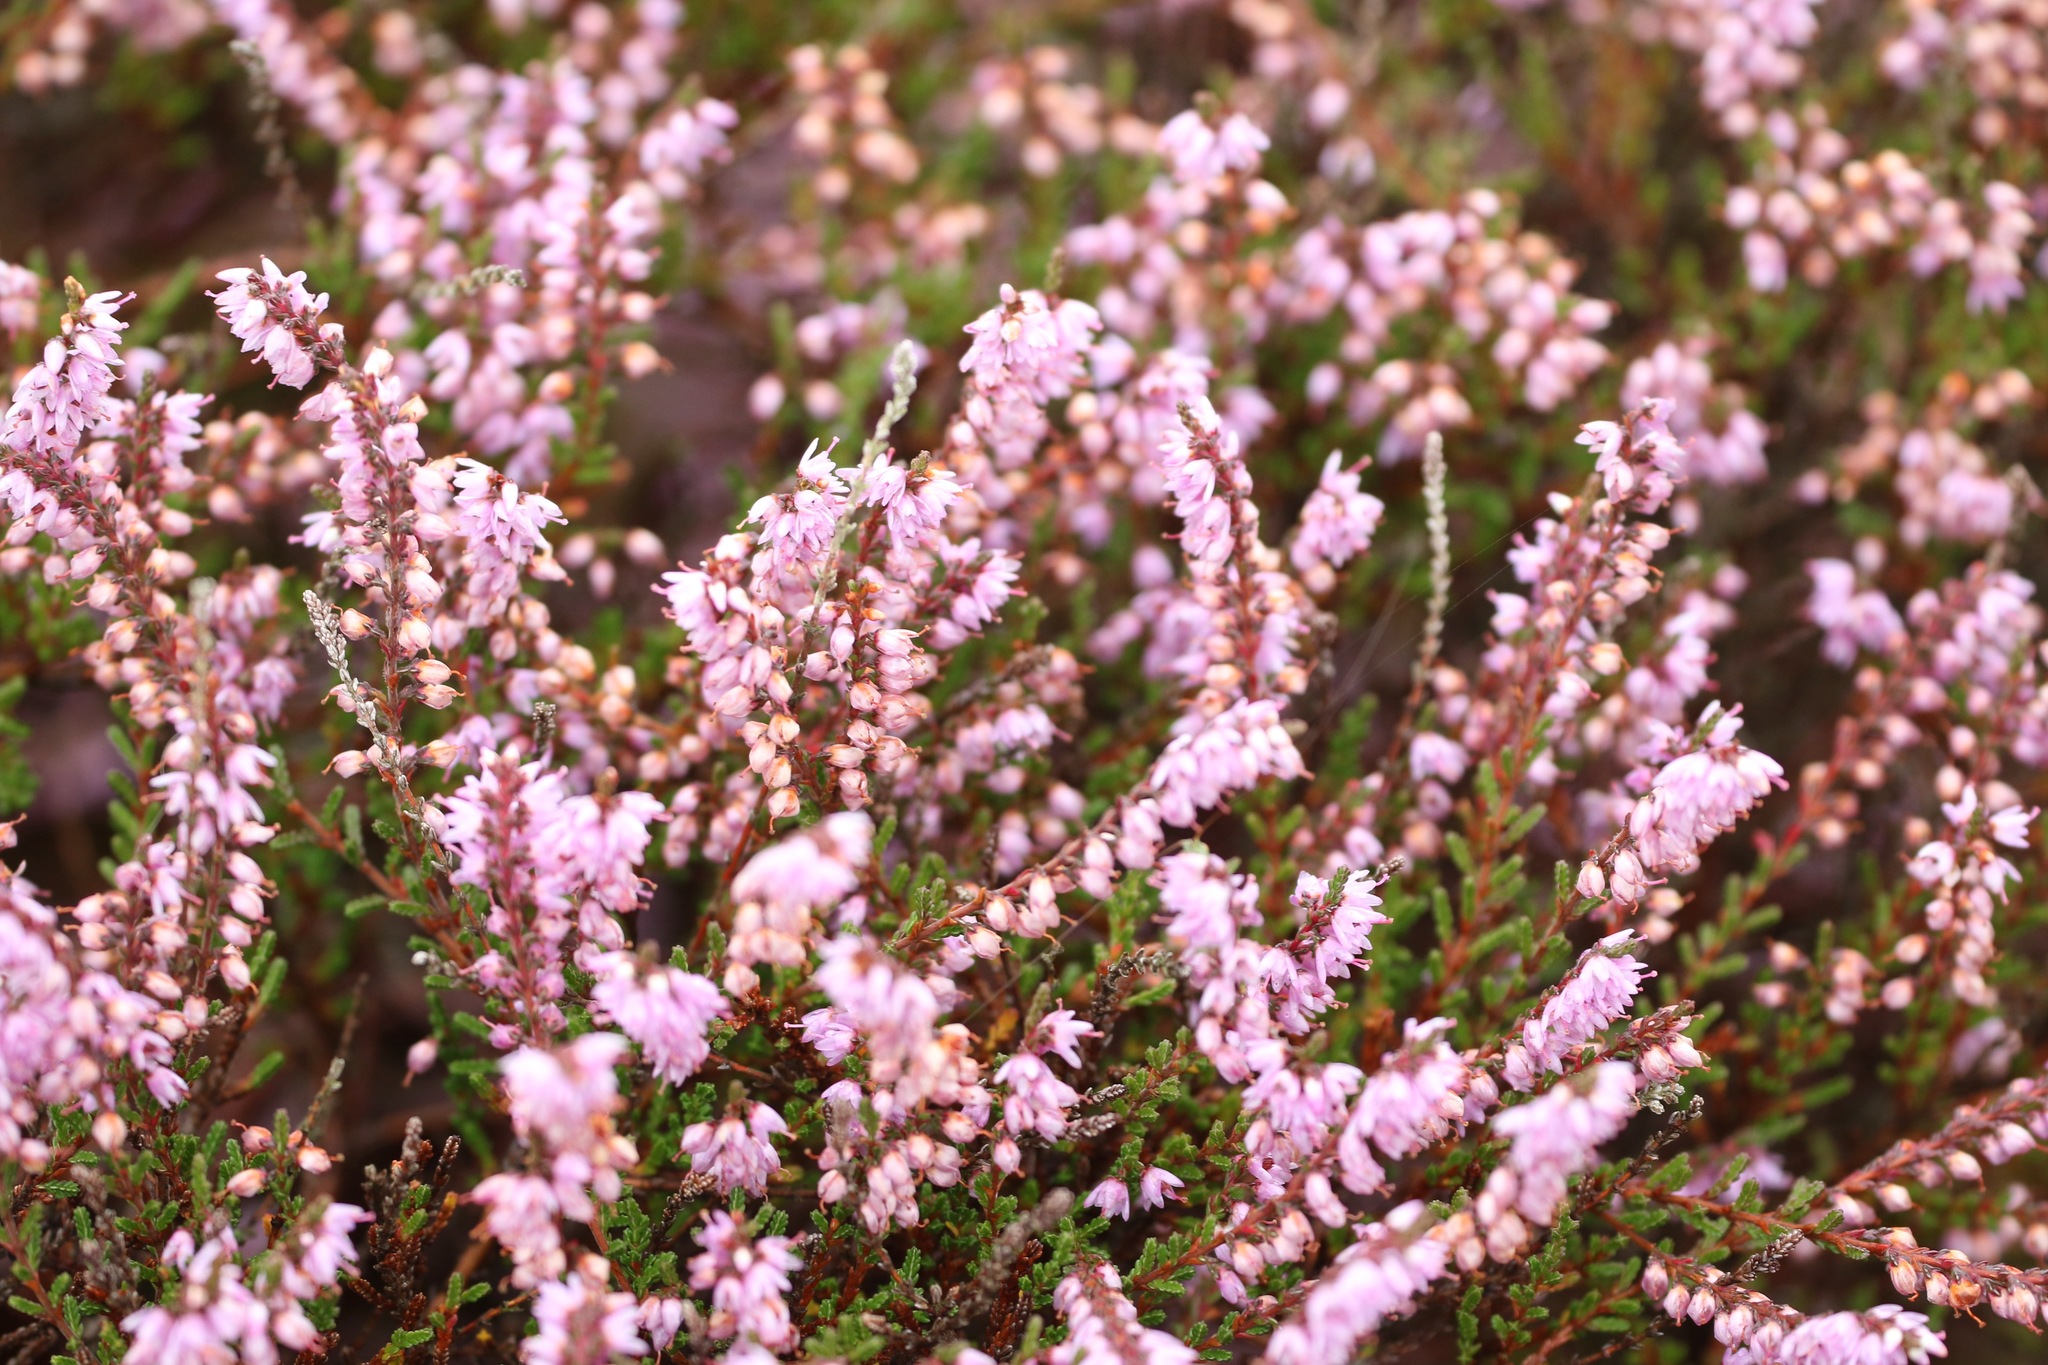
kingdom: Plantae
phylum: Tracheophyta
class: Magnoliopsida
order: Ericales
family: Ericaceae
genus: Calluna
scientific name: Calluna vulgaris
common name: Heather
